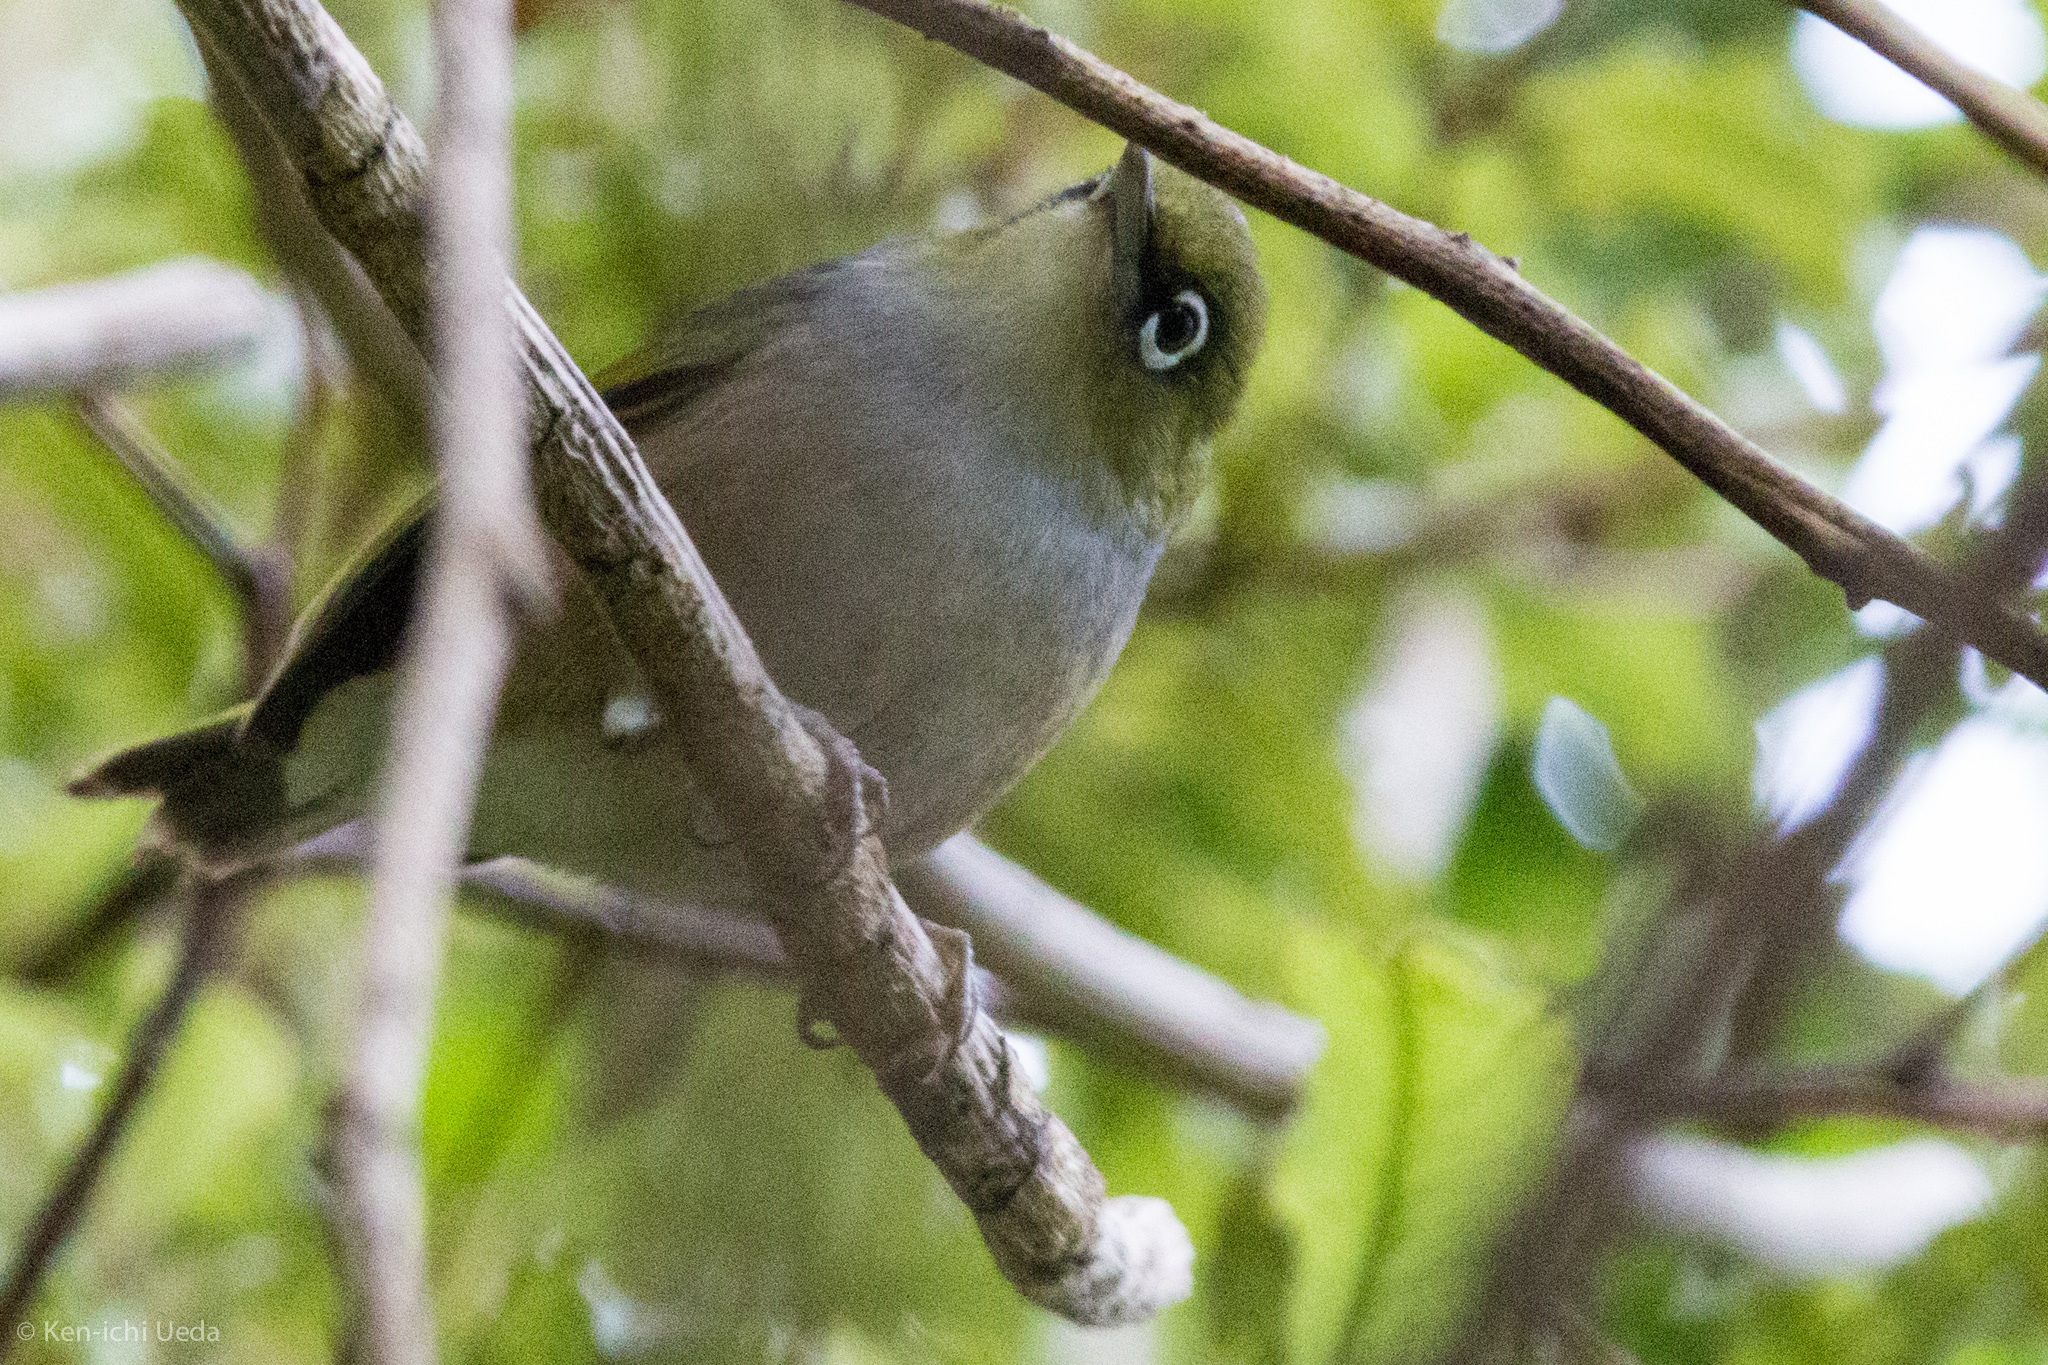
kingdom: Animalia
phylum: Chordata
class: Aves
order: Passeriformes
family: Zosteropidae
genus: Zosterops
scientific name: Zosterops lateralis
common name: Silvereye
